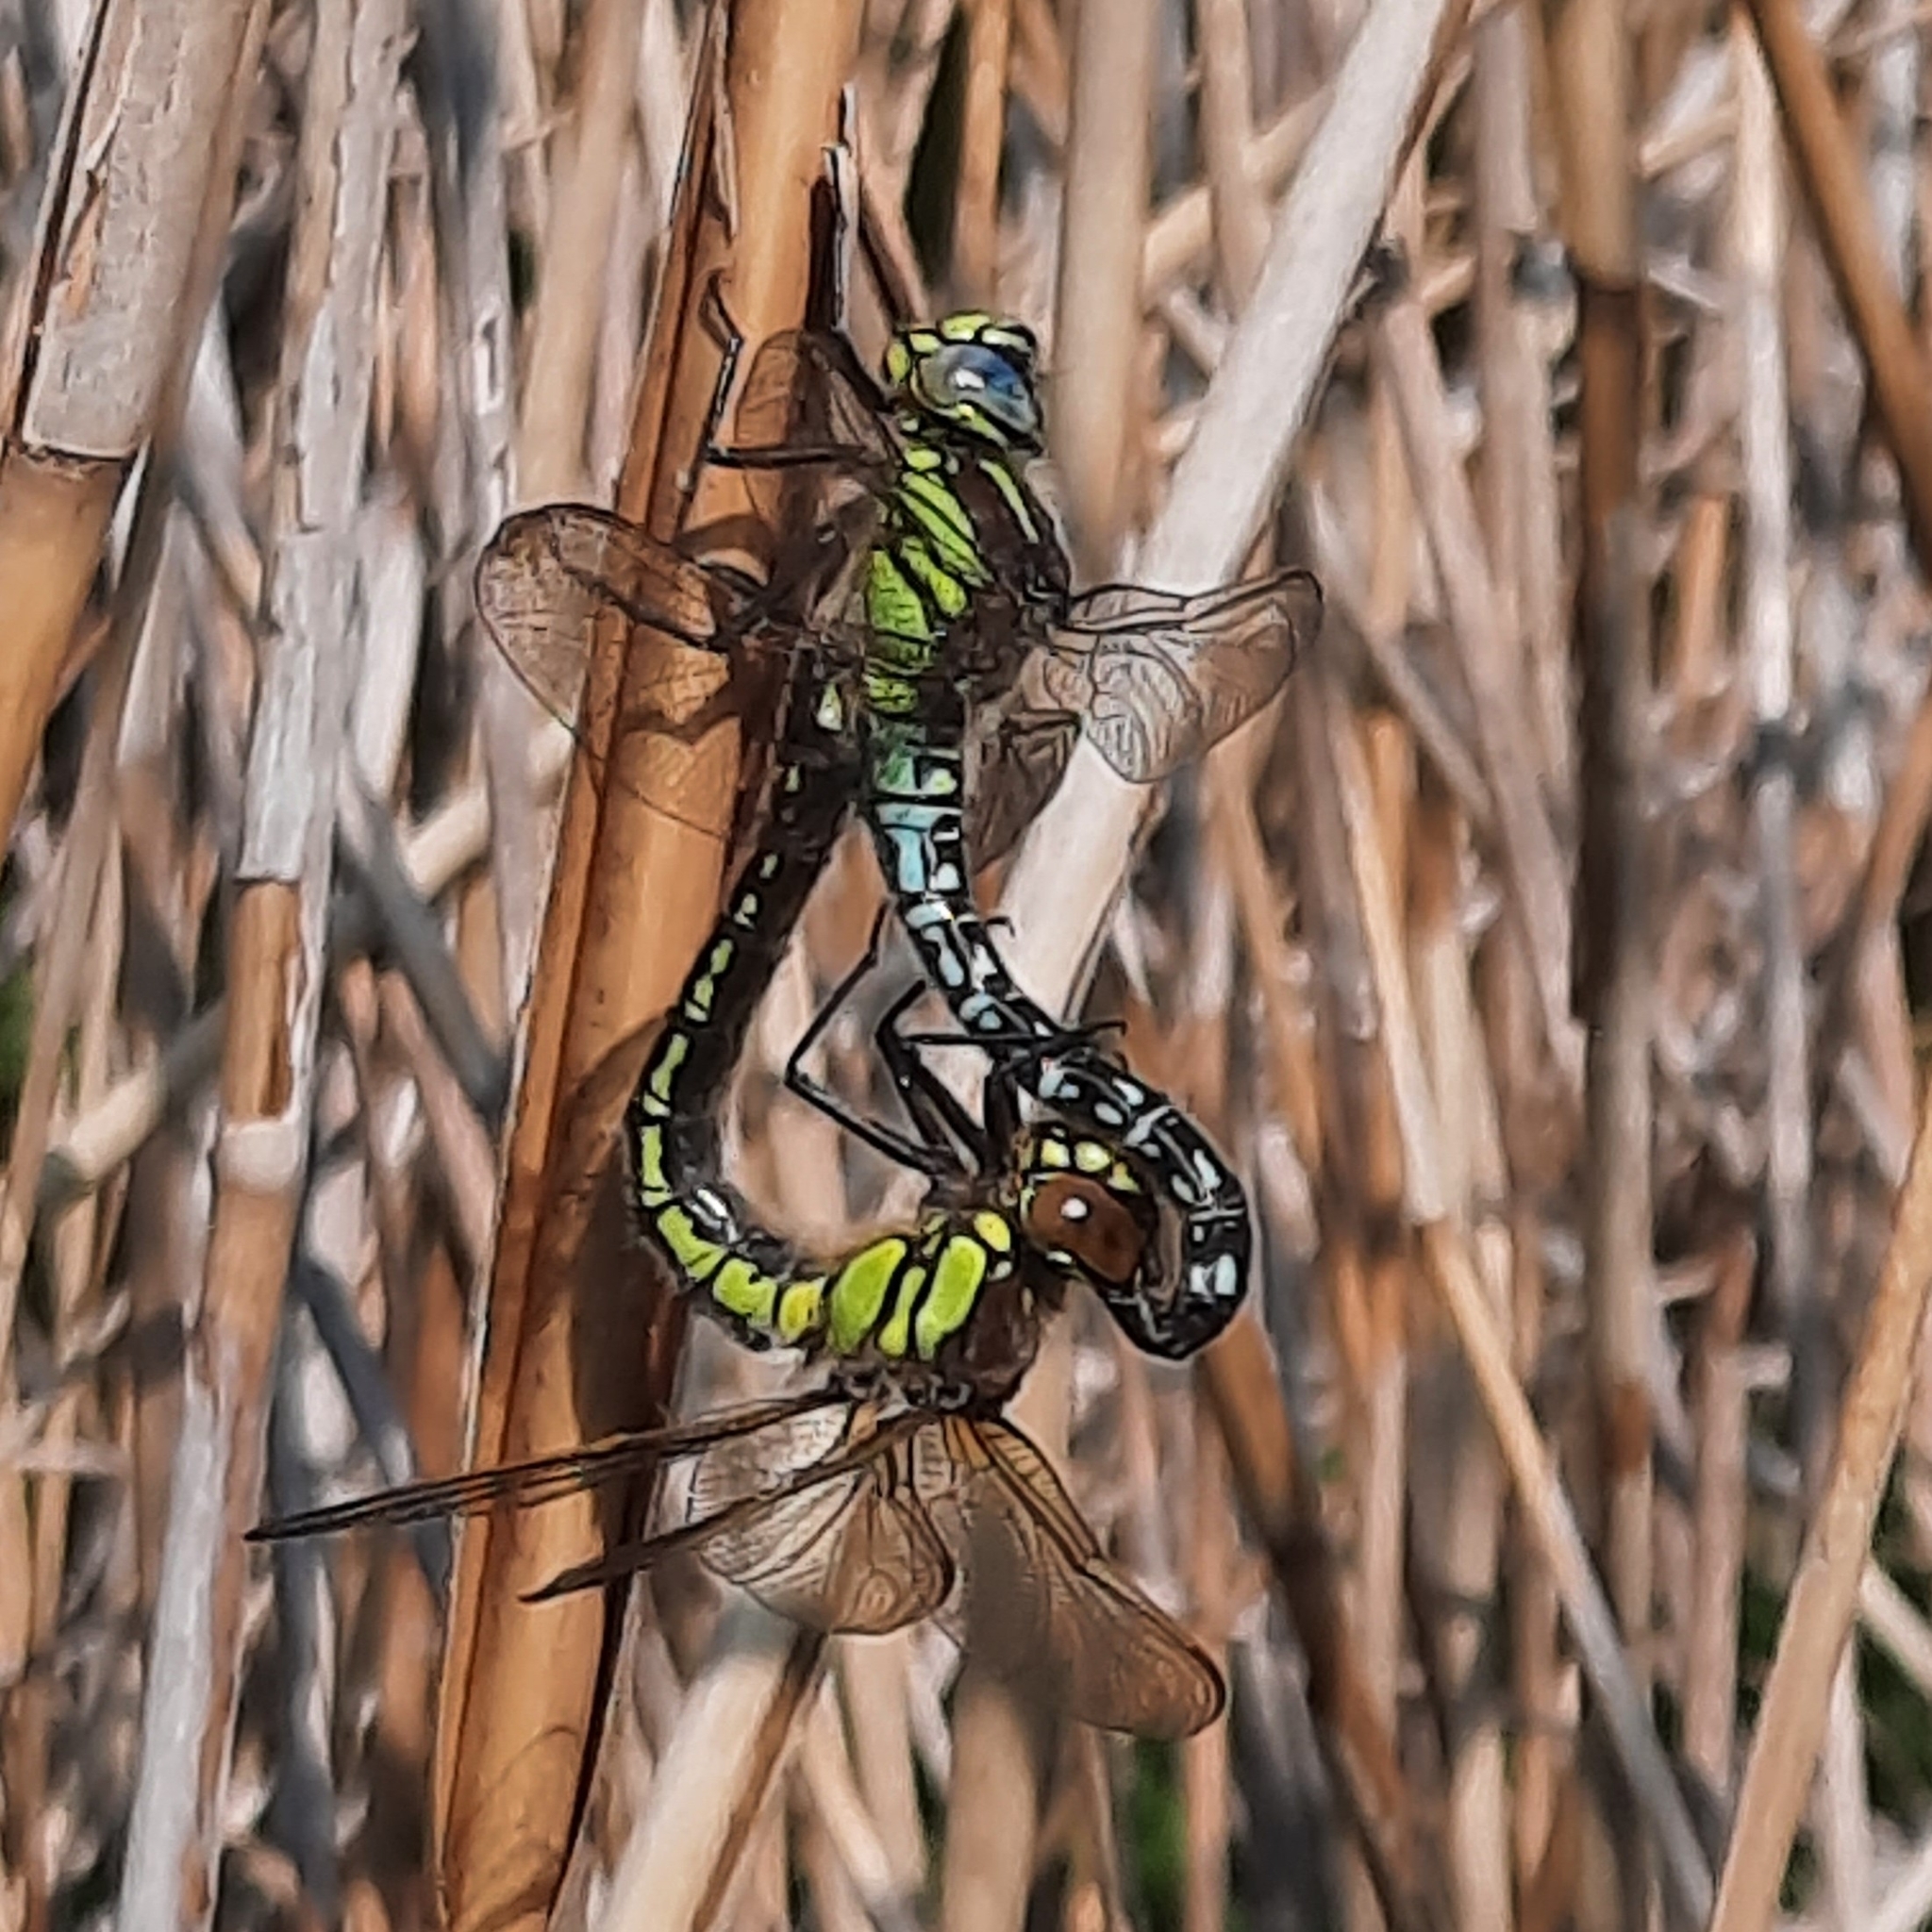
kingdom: Animalia
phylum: Arthropoda
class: Insecta
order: Odonata
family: Aeshnidae
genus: Brachytron
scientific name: Brachytron pratense
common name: Hairy hawker
